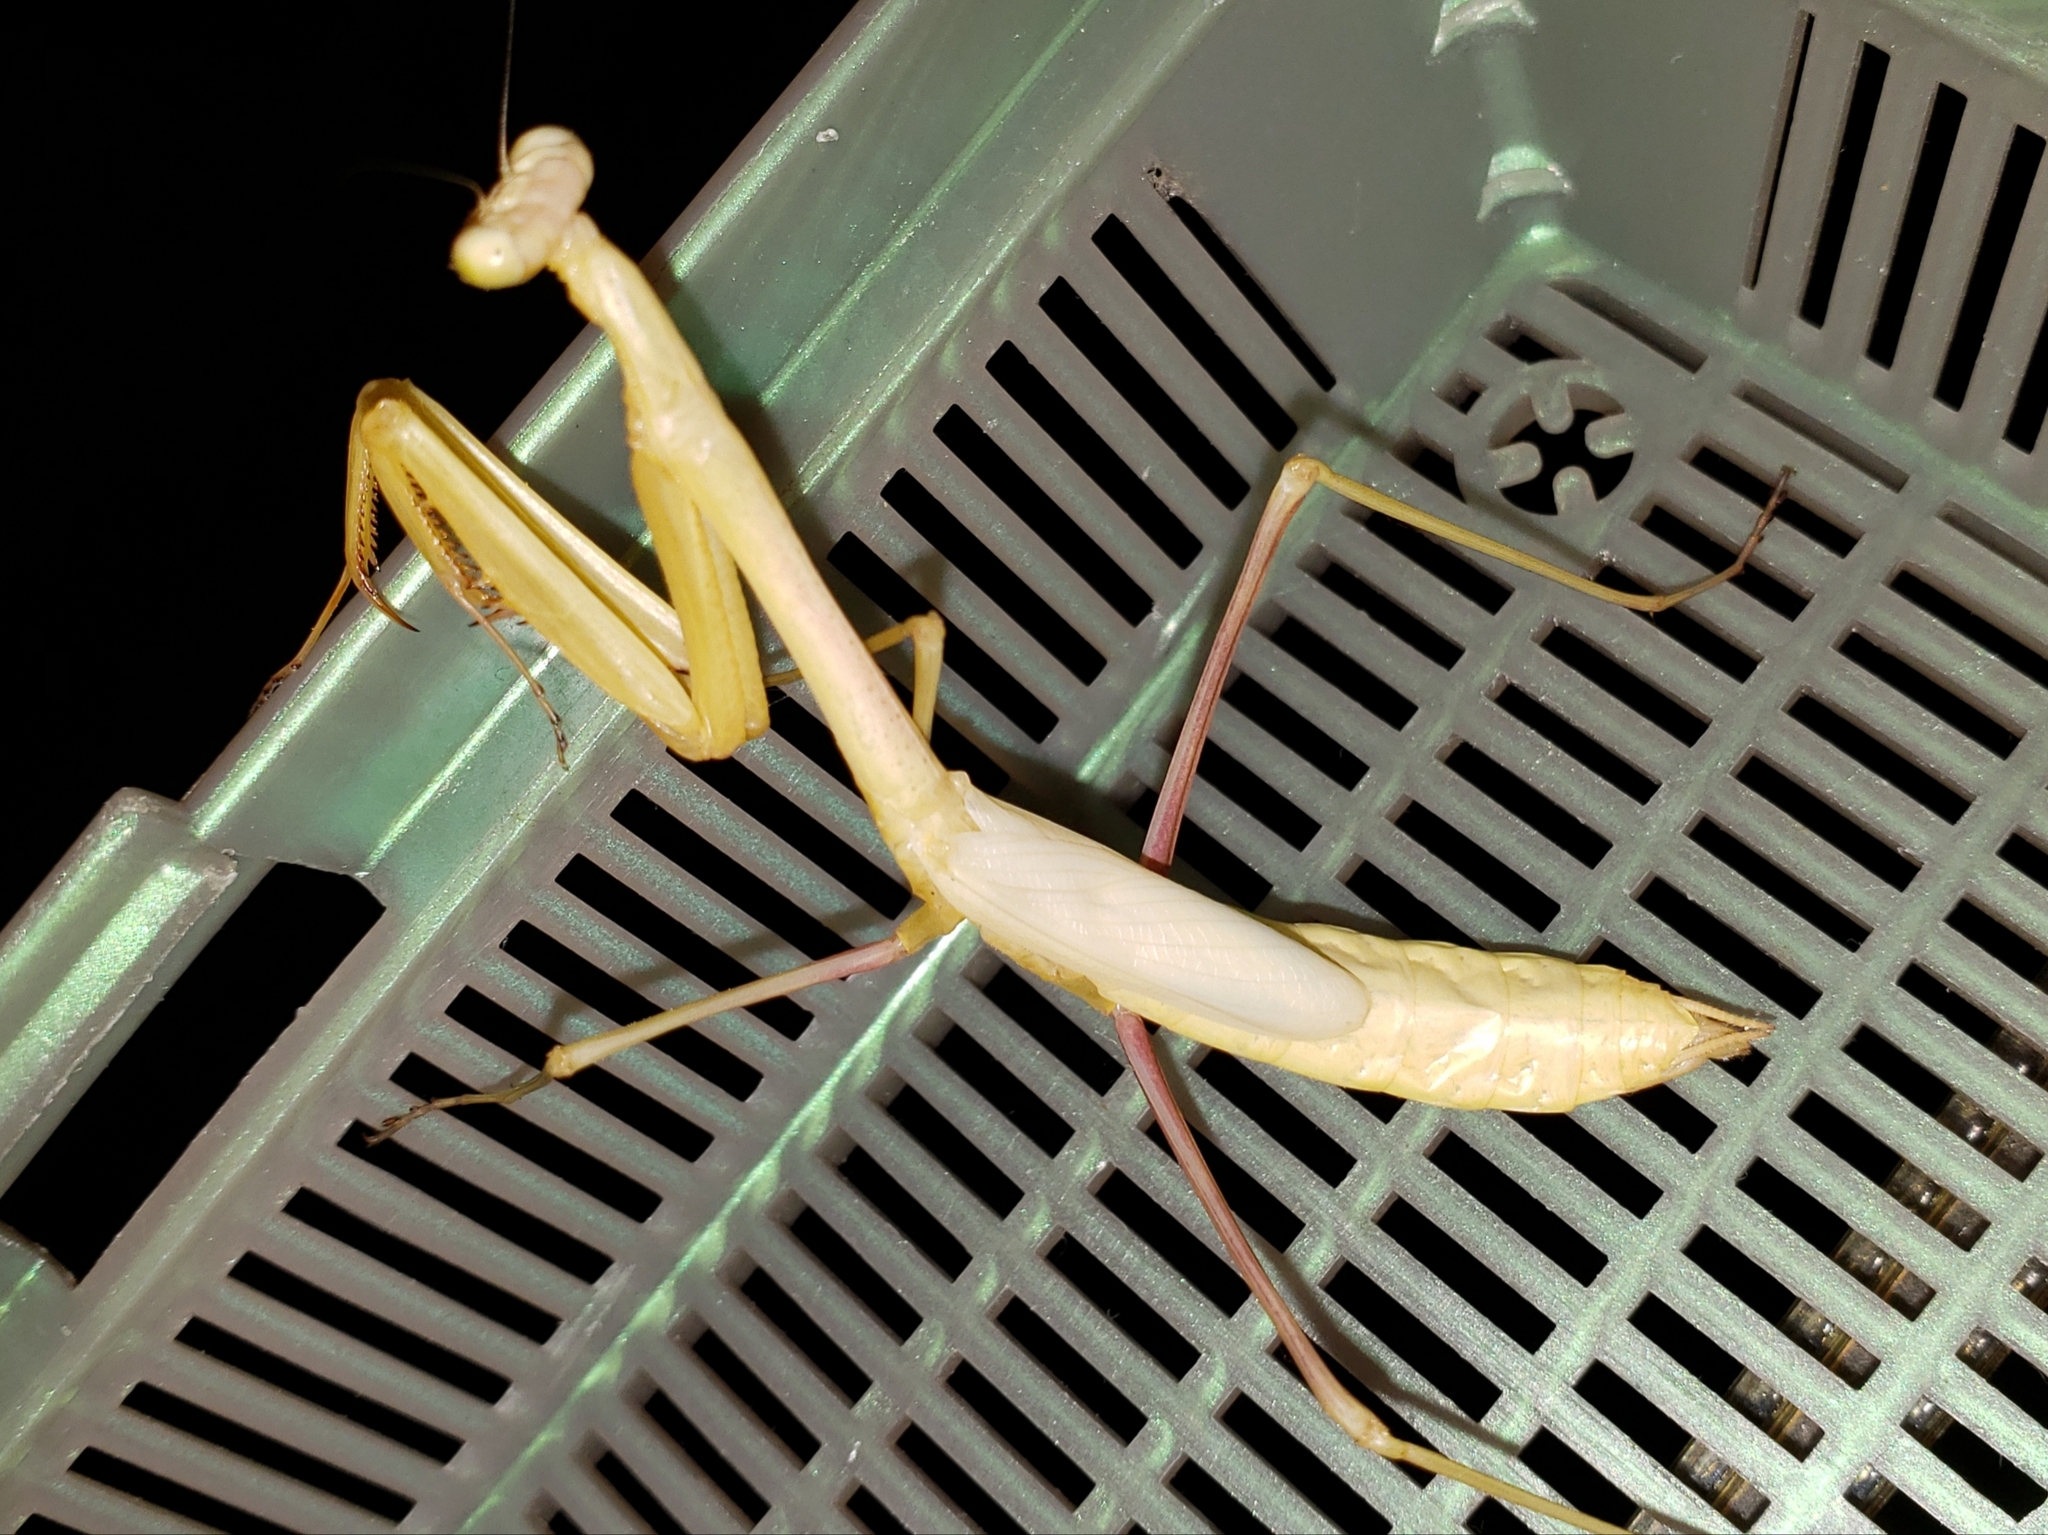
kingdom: Animalia
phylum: Arthropoda
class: Insecta
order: Mantodea
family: Mantidae
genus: Stagmomantis
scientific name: Stagmomantis floridensis
